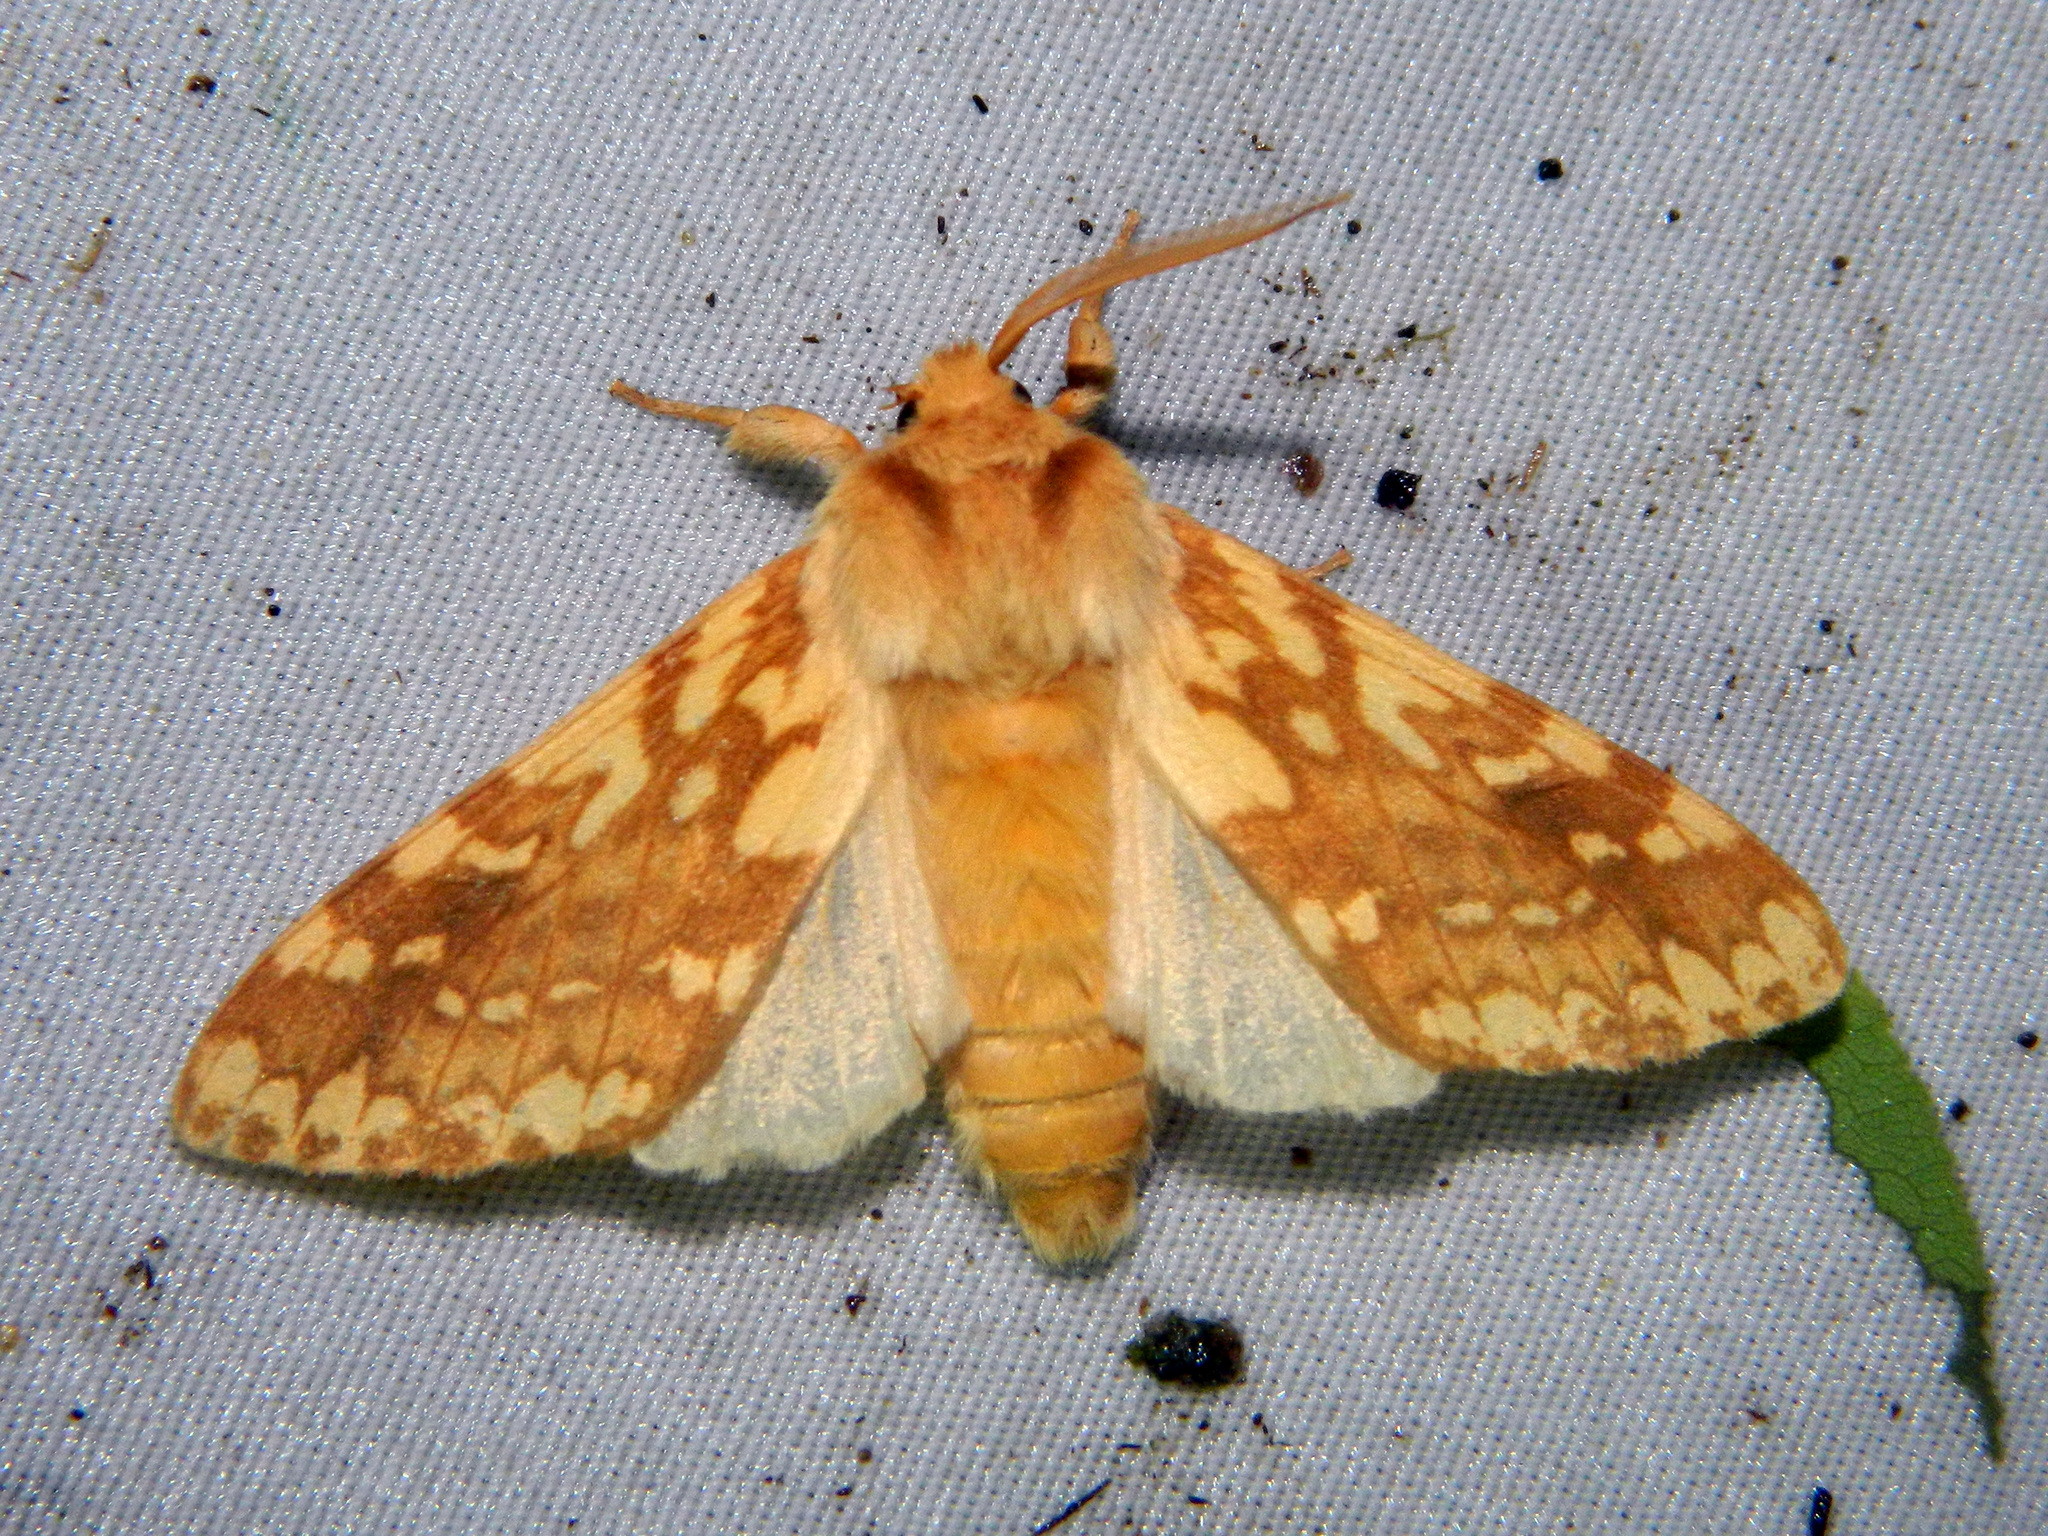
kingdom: Animalia
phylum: Arthropoda
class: Insecta
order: Lepidoptera
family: Erebidae
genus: Lophocampa
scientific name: Lophocampa maculata
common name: Spotted tussock moth
